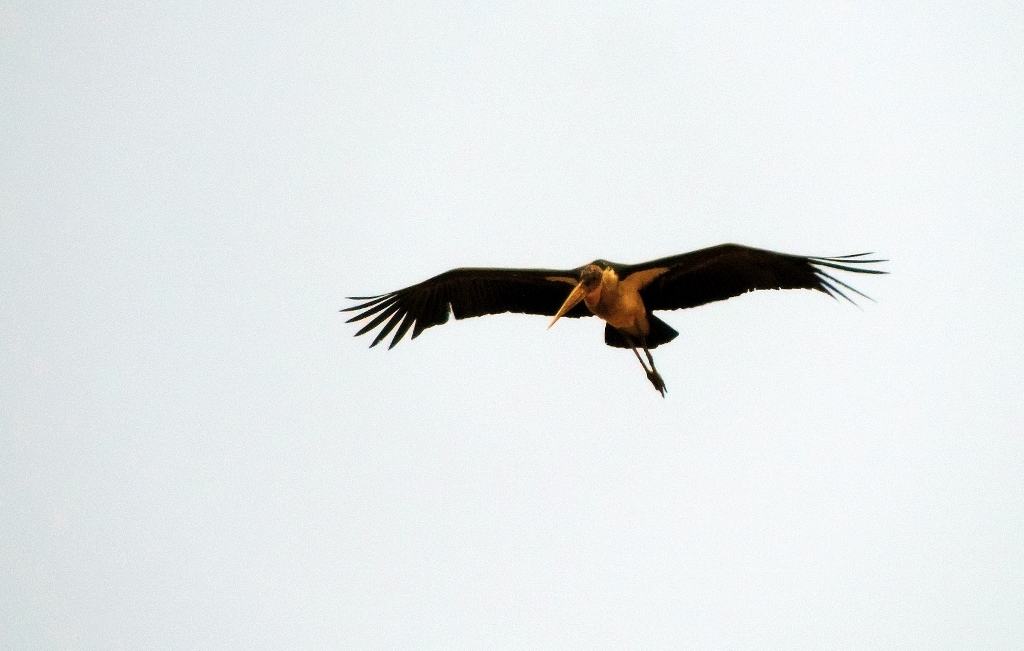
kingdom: Animalia
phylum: Chordata
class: Aves
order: Ciconiiformes
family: Ciconiidae
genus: Leptoptilos
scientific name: Leptoptilos crumenifer
